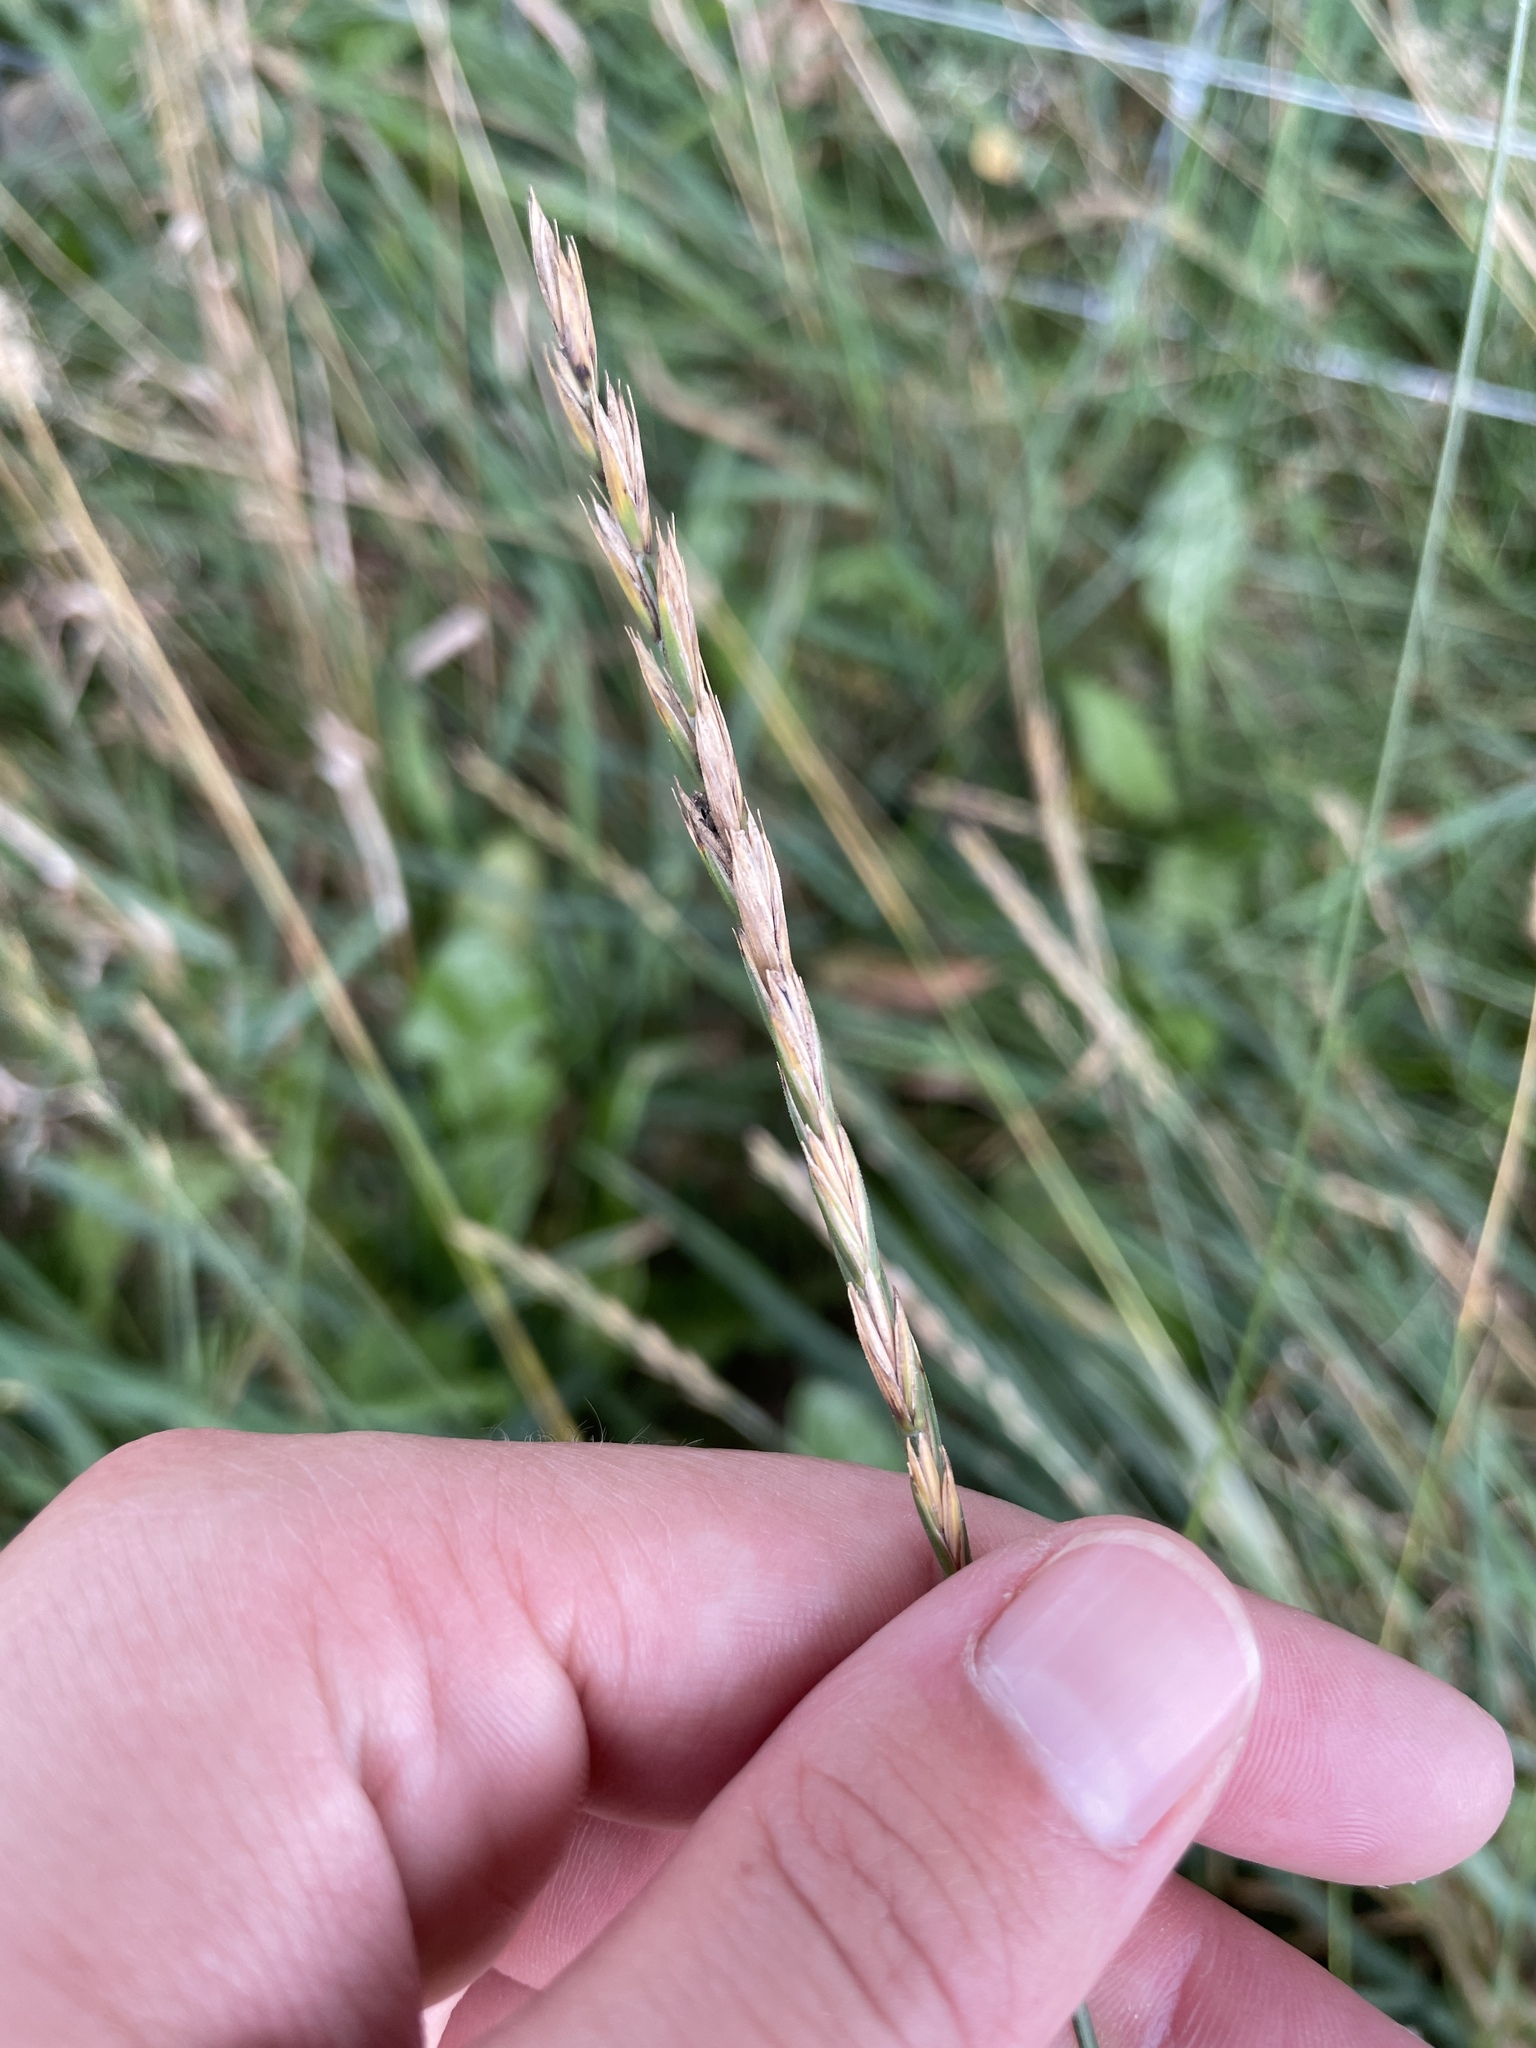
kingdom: Plantae
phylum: Tracheophyta
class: Liliopsida
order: Poales
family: Poaceae
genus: Elymus
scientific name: Elymus repens
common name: Quackgrass
